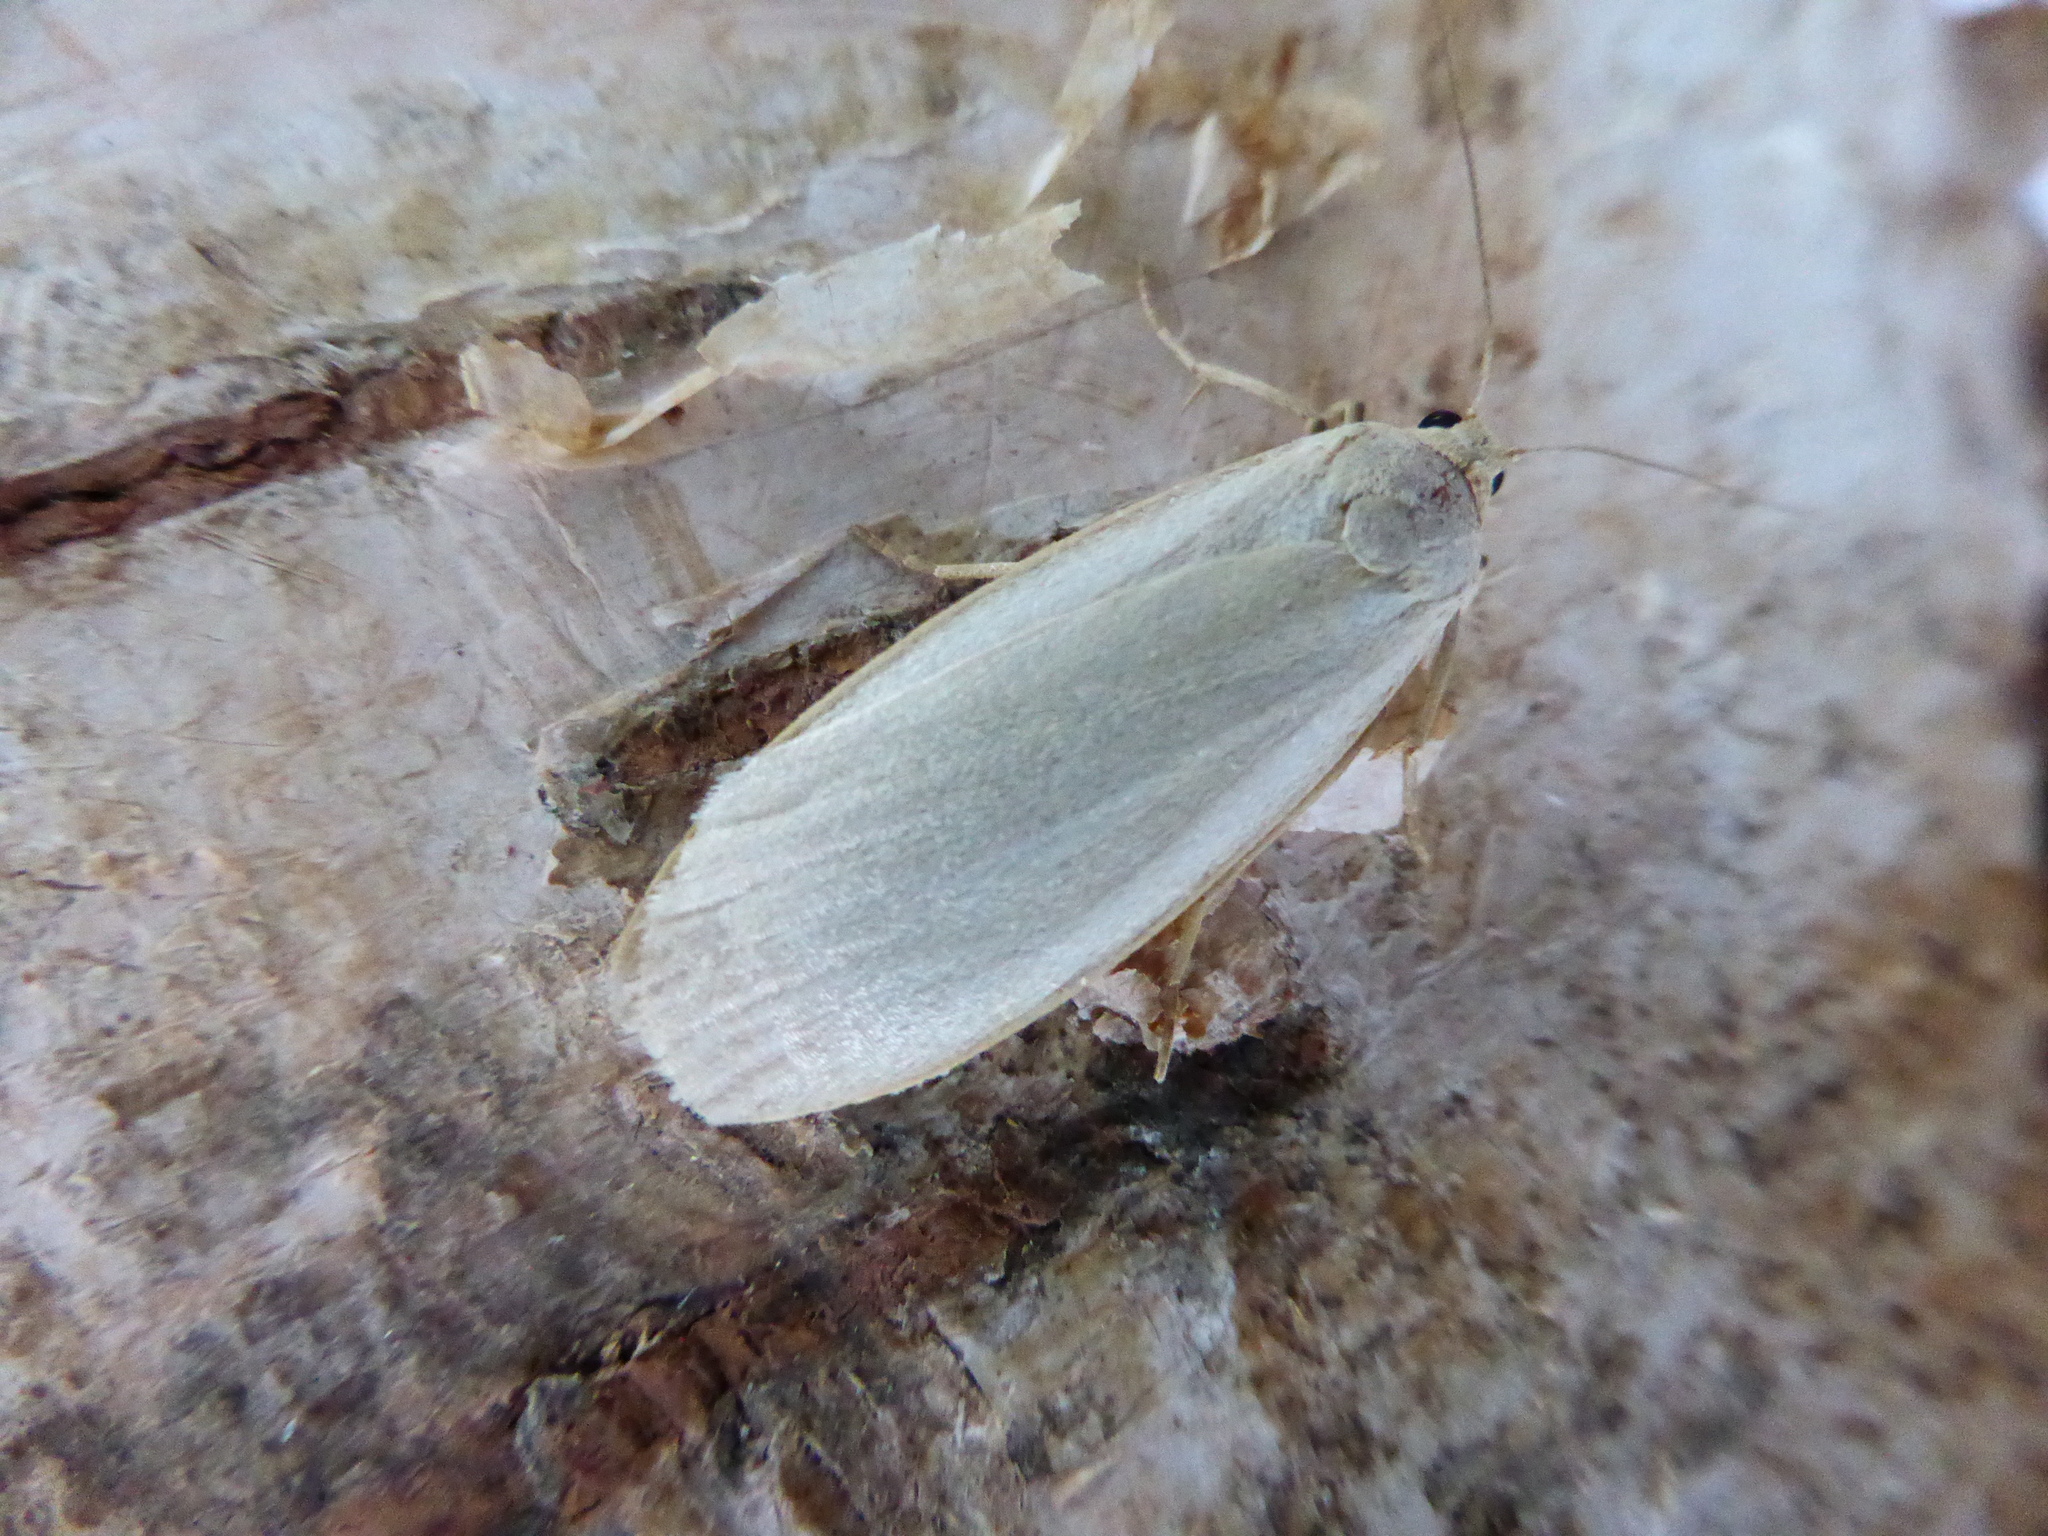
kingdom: Animalia
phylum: Arthropoda
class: Insecta
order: Lepidoptera
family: Erebidae
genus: Collita
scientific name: Collita griseola
